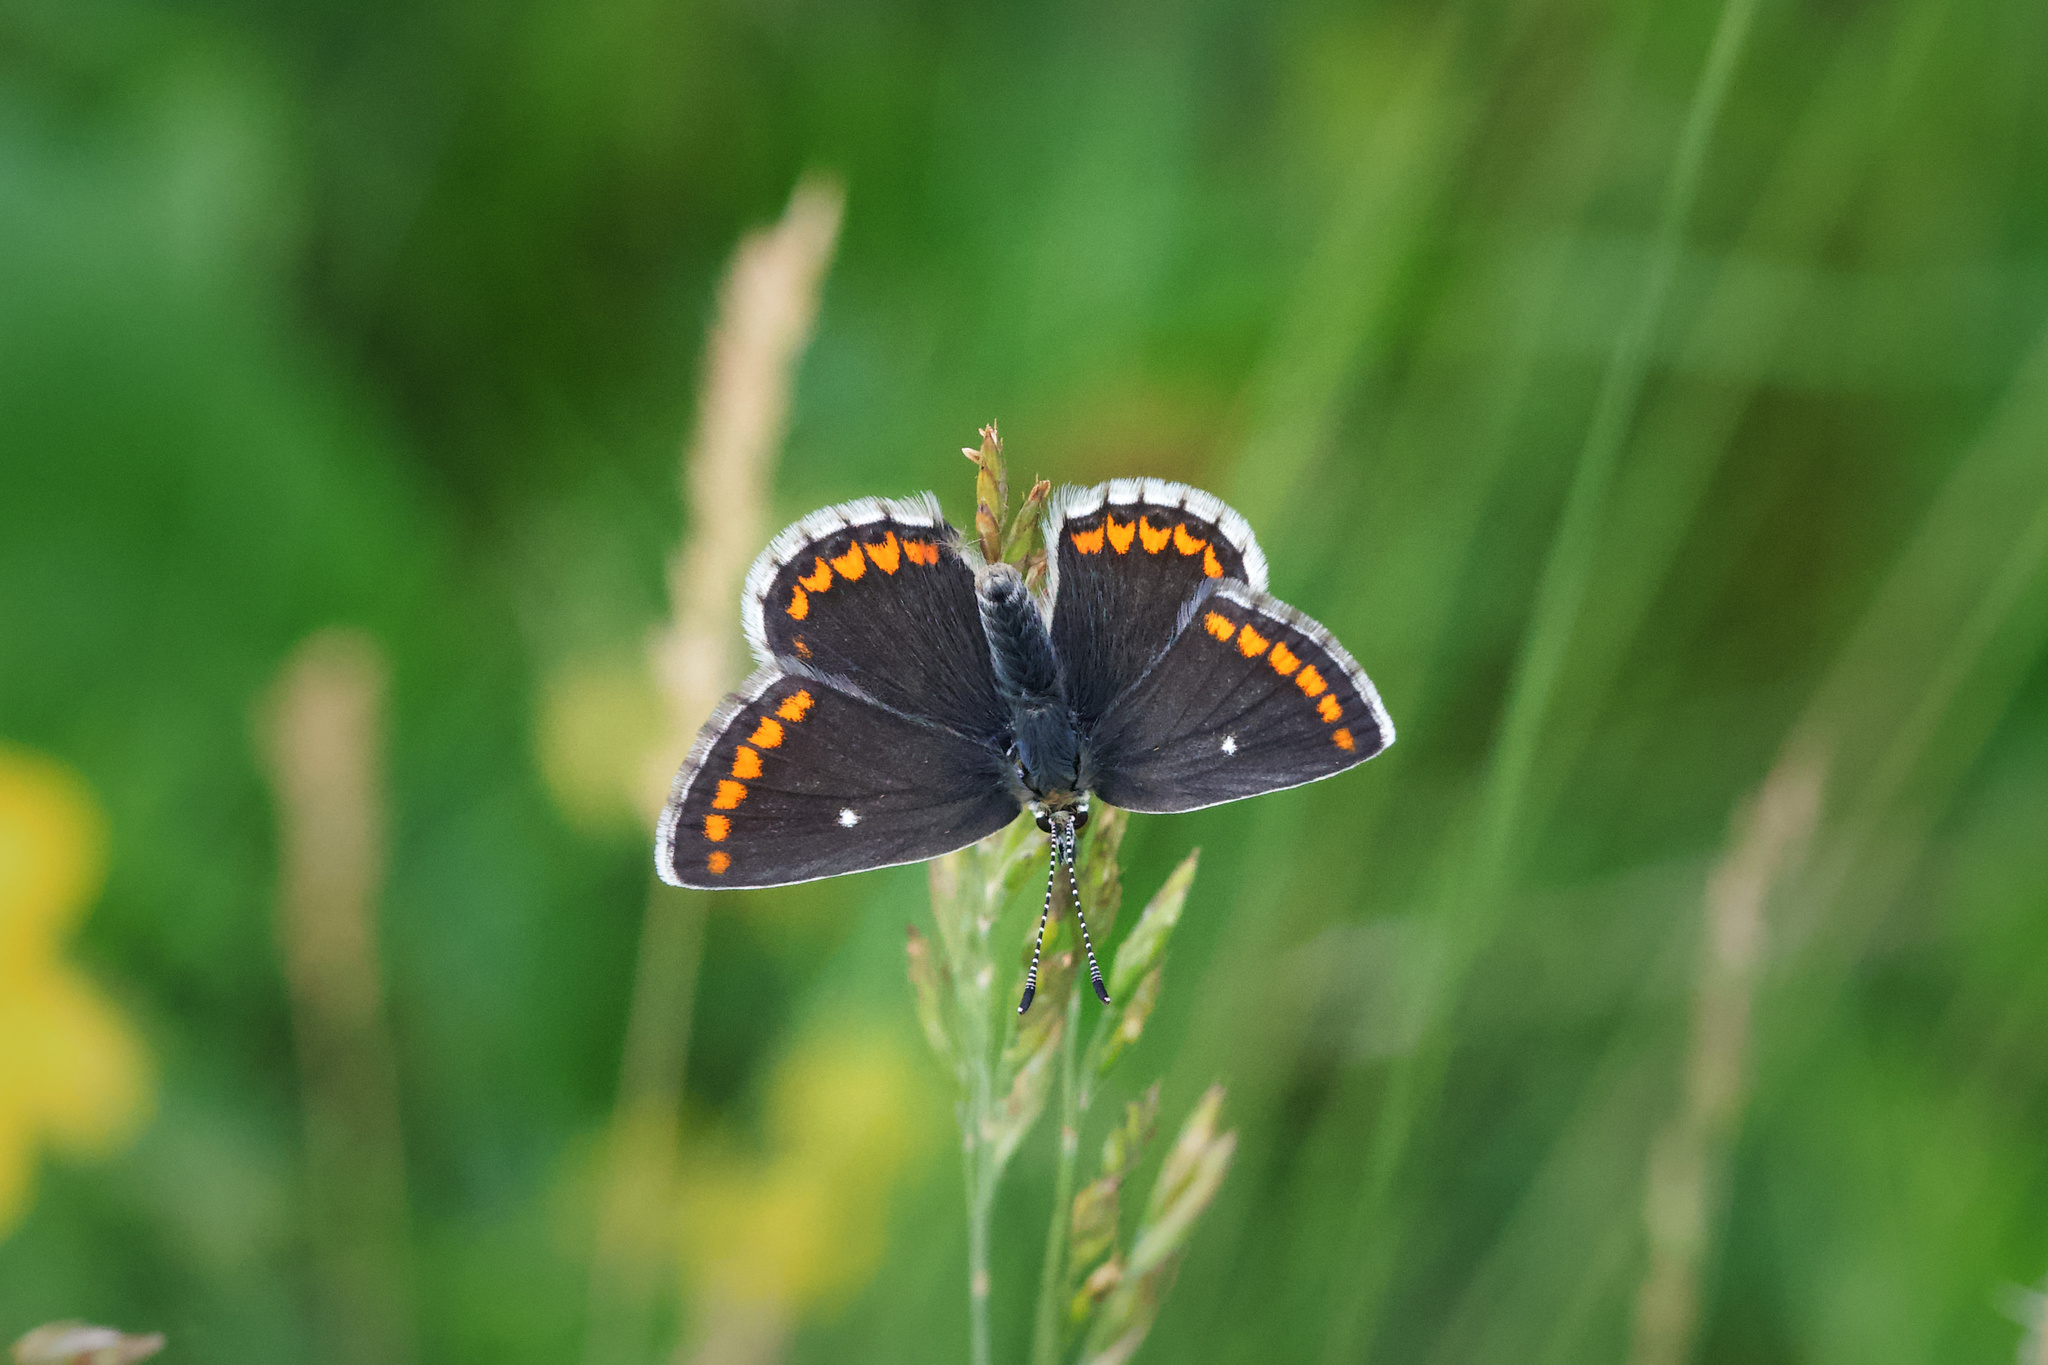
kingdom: Animalia
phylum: Arthropoda
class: Insecta
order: Lepidoptera
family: Lycaenidae
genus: Aricia
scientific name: Aricia artaxerxes
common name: Northern brown argus
